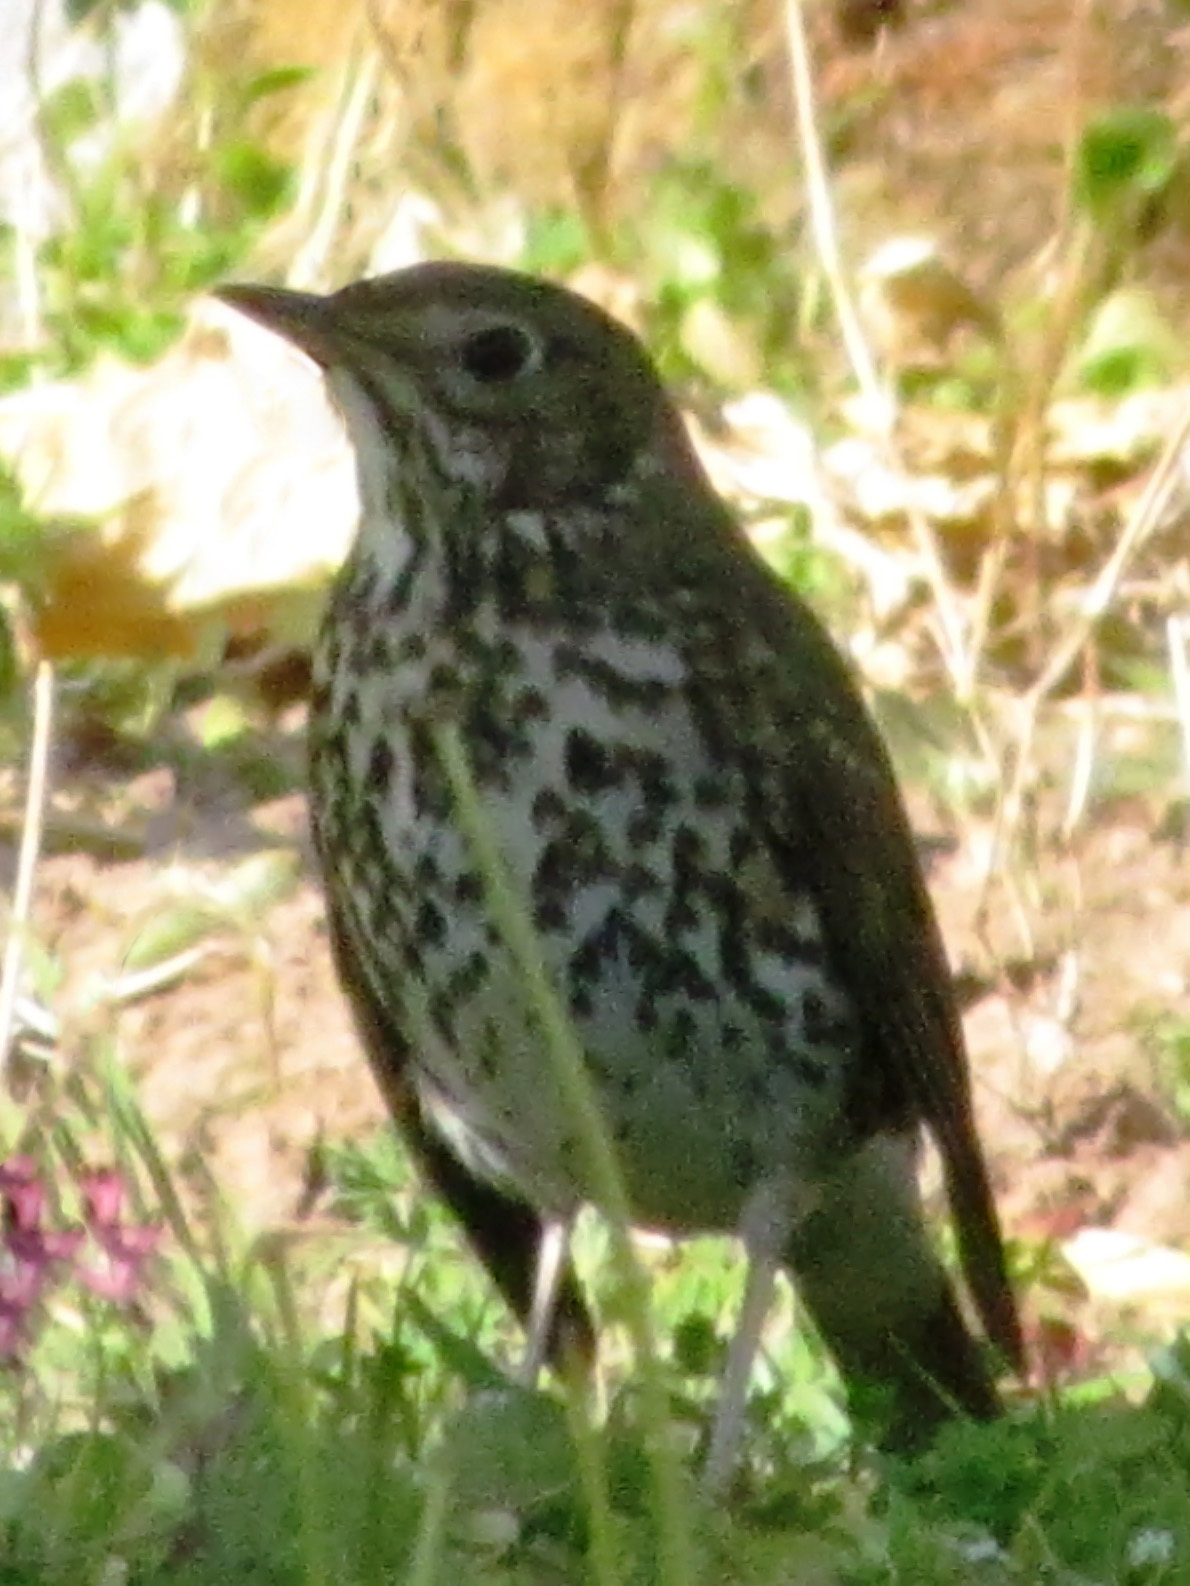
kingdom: Animalia
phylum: Chordata
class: Aves
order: Passeriformes
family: Turdidae
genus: Turdus
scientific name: Turdus philomelos
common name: Song thrush
